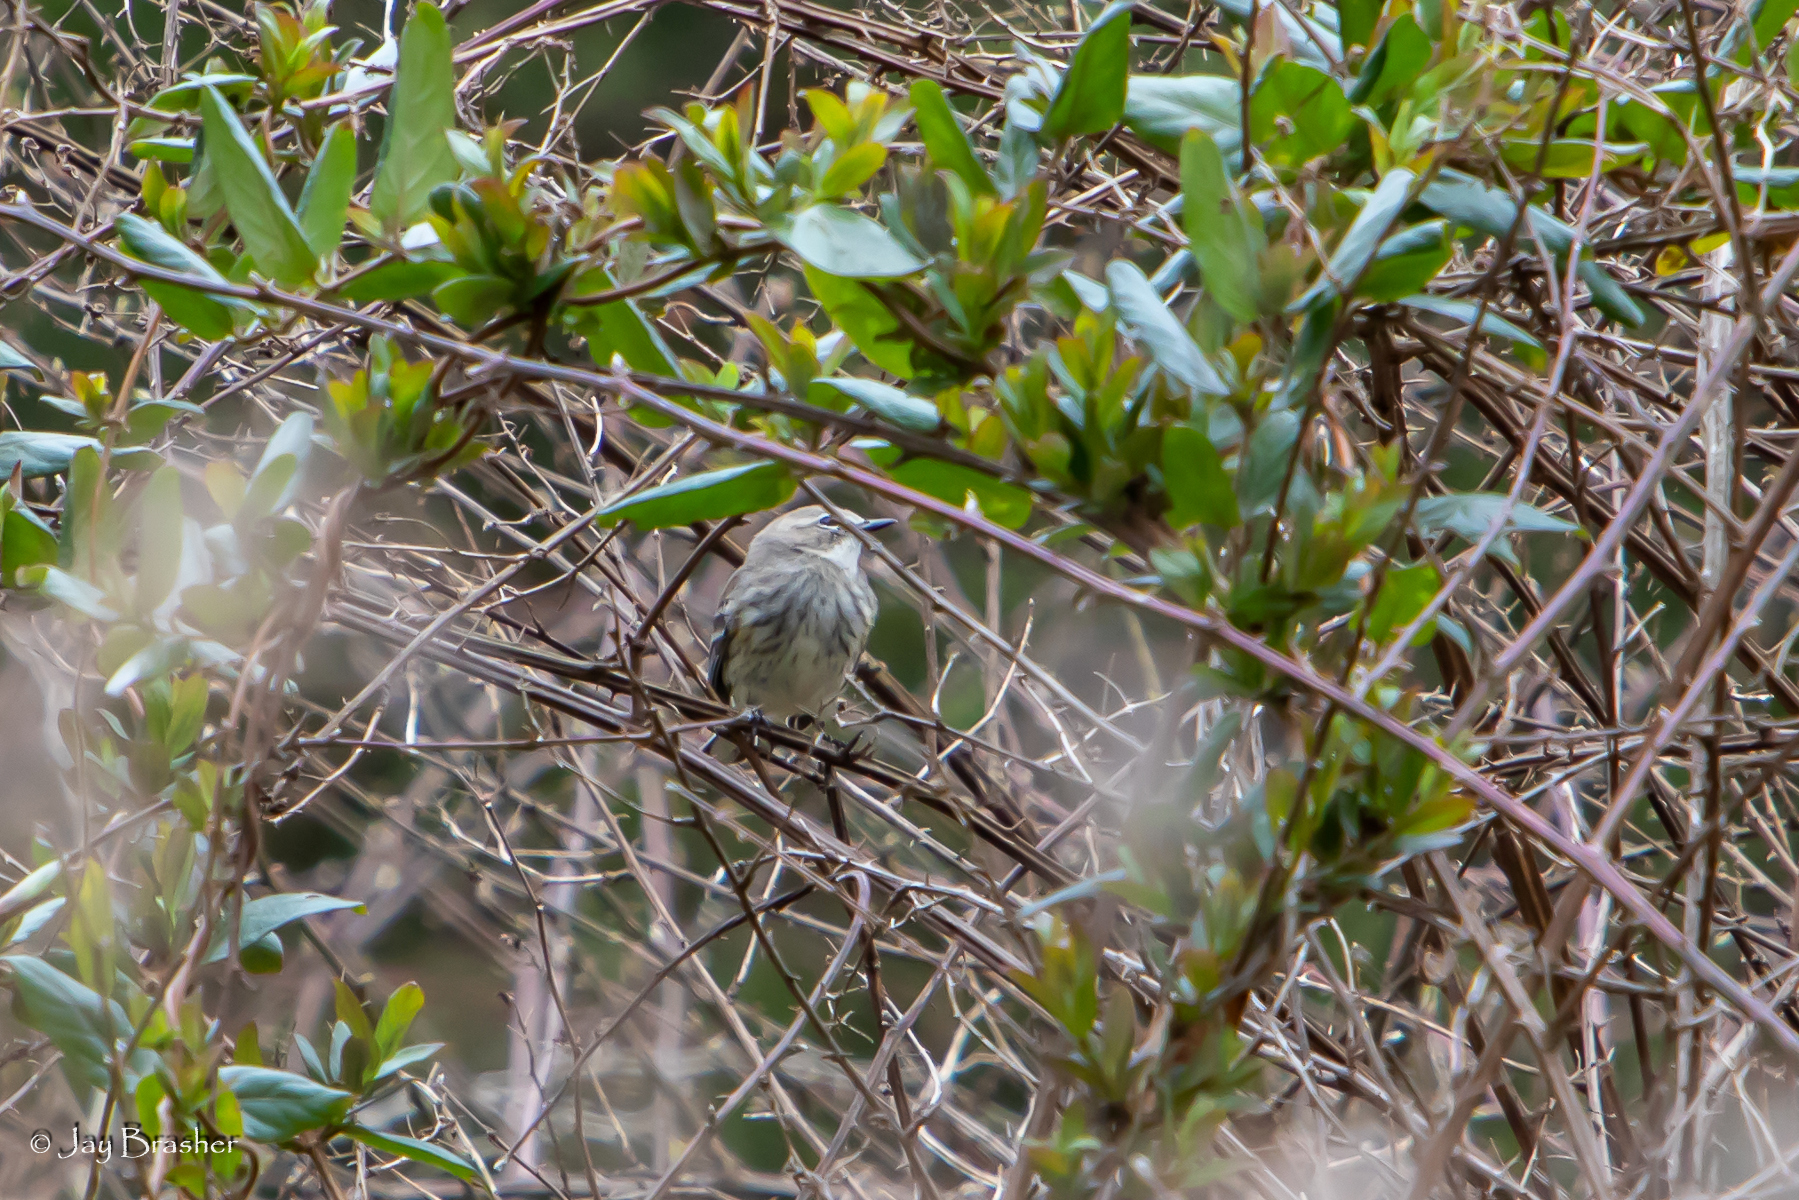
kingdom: Animalia
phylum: Chordata
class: Aves
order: Passeriformes
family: Parulidae
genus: Setophaga
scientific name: Setophaga coronata
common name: Myrtle warbler
